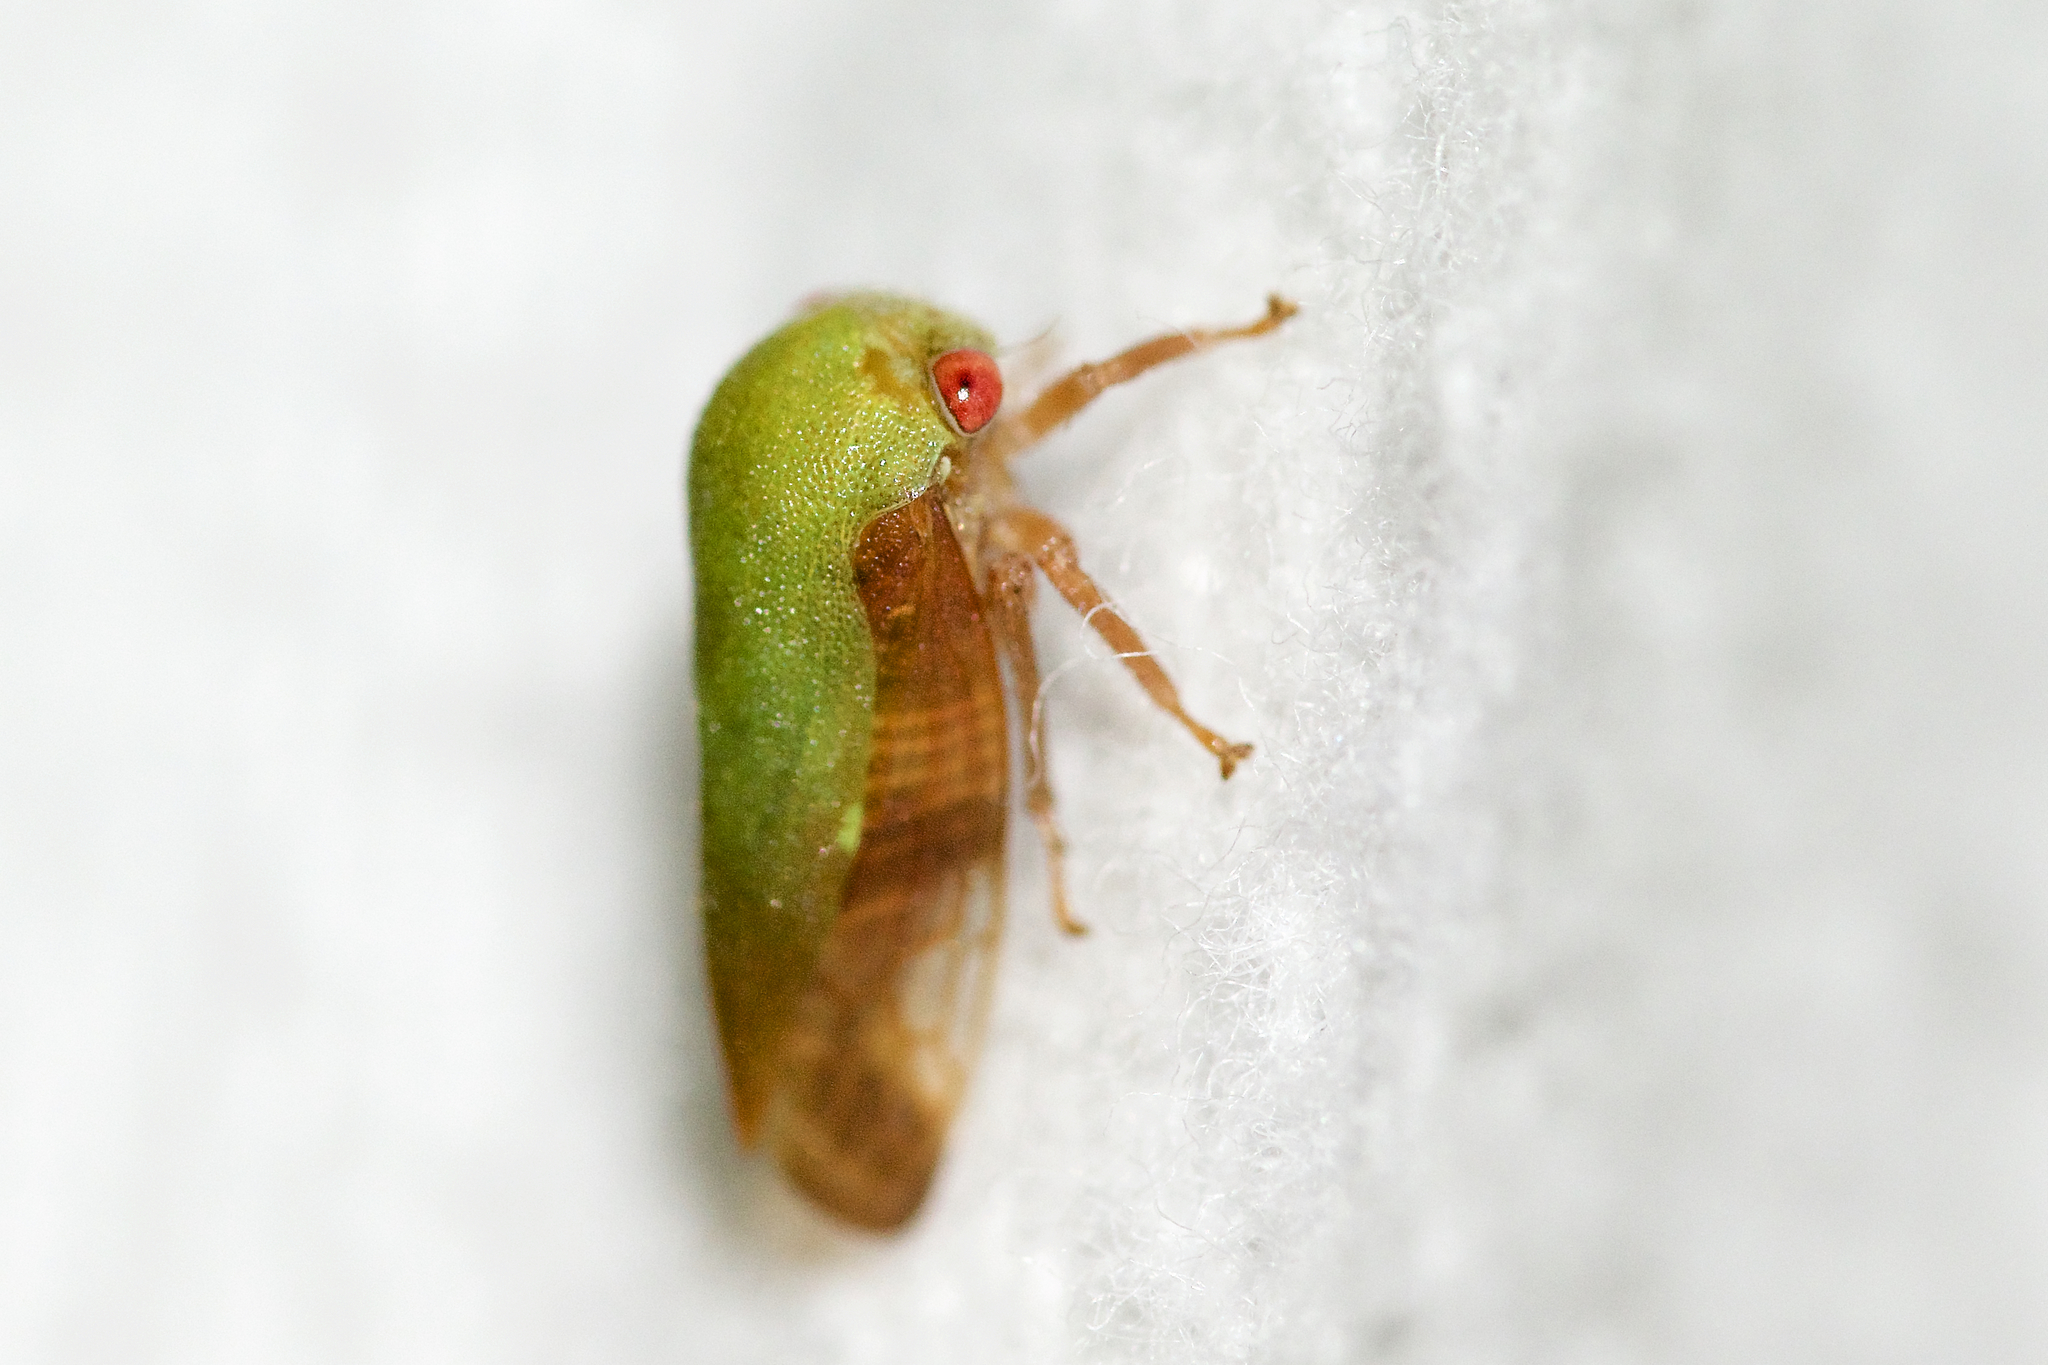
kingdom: Animalia
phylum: Arthropoda
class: Insecta
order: Hemiptera
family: Membracidae
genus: Ophiderma
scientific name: Ophiderma flava
